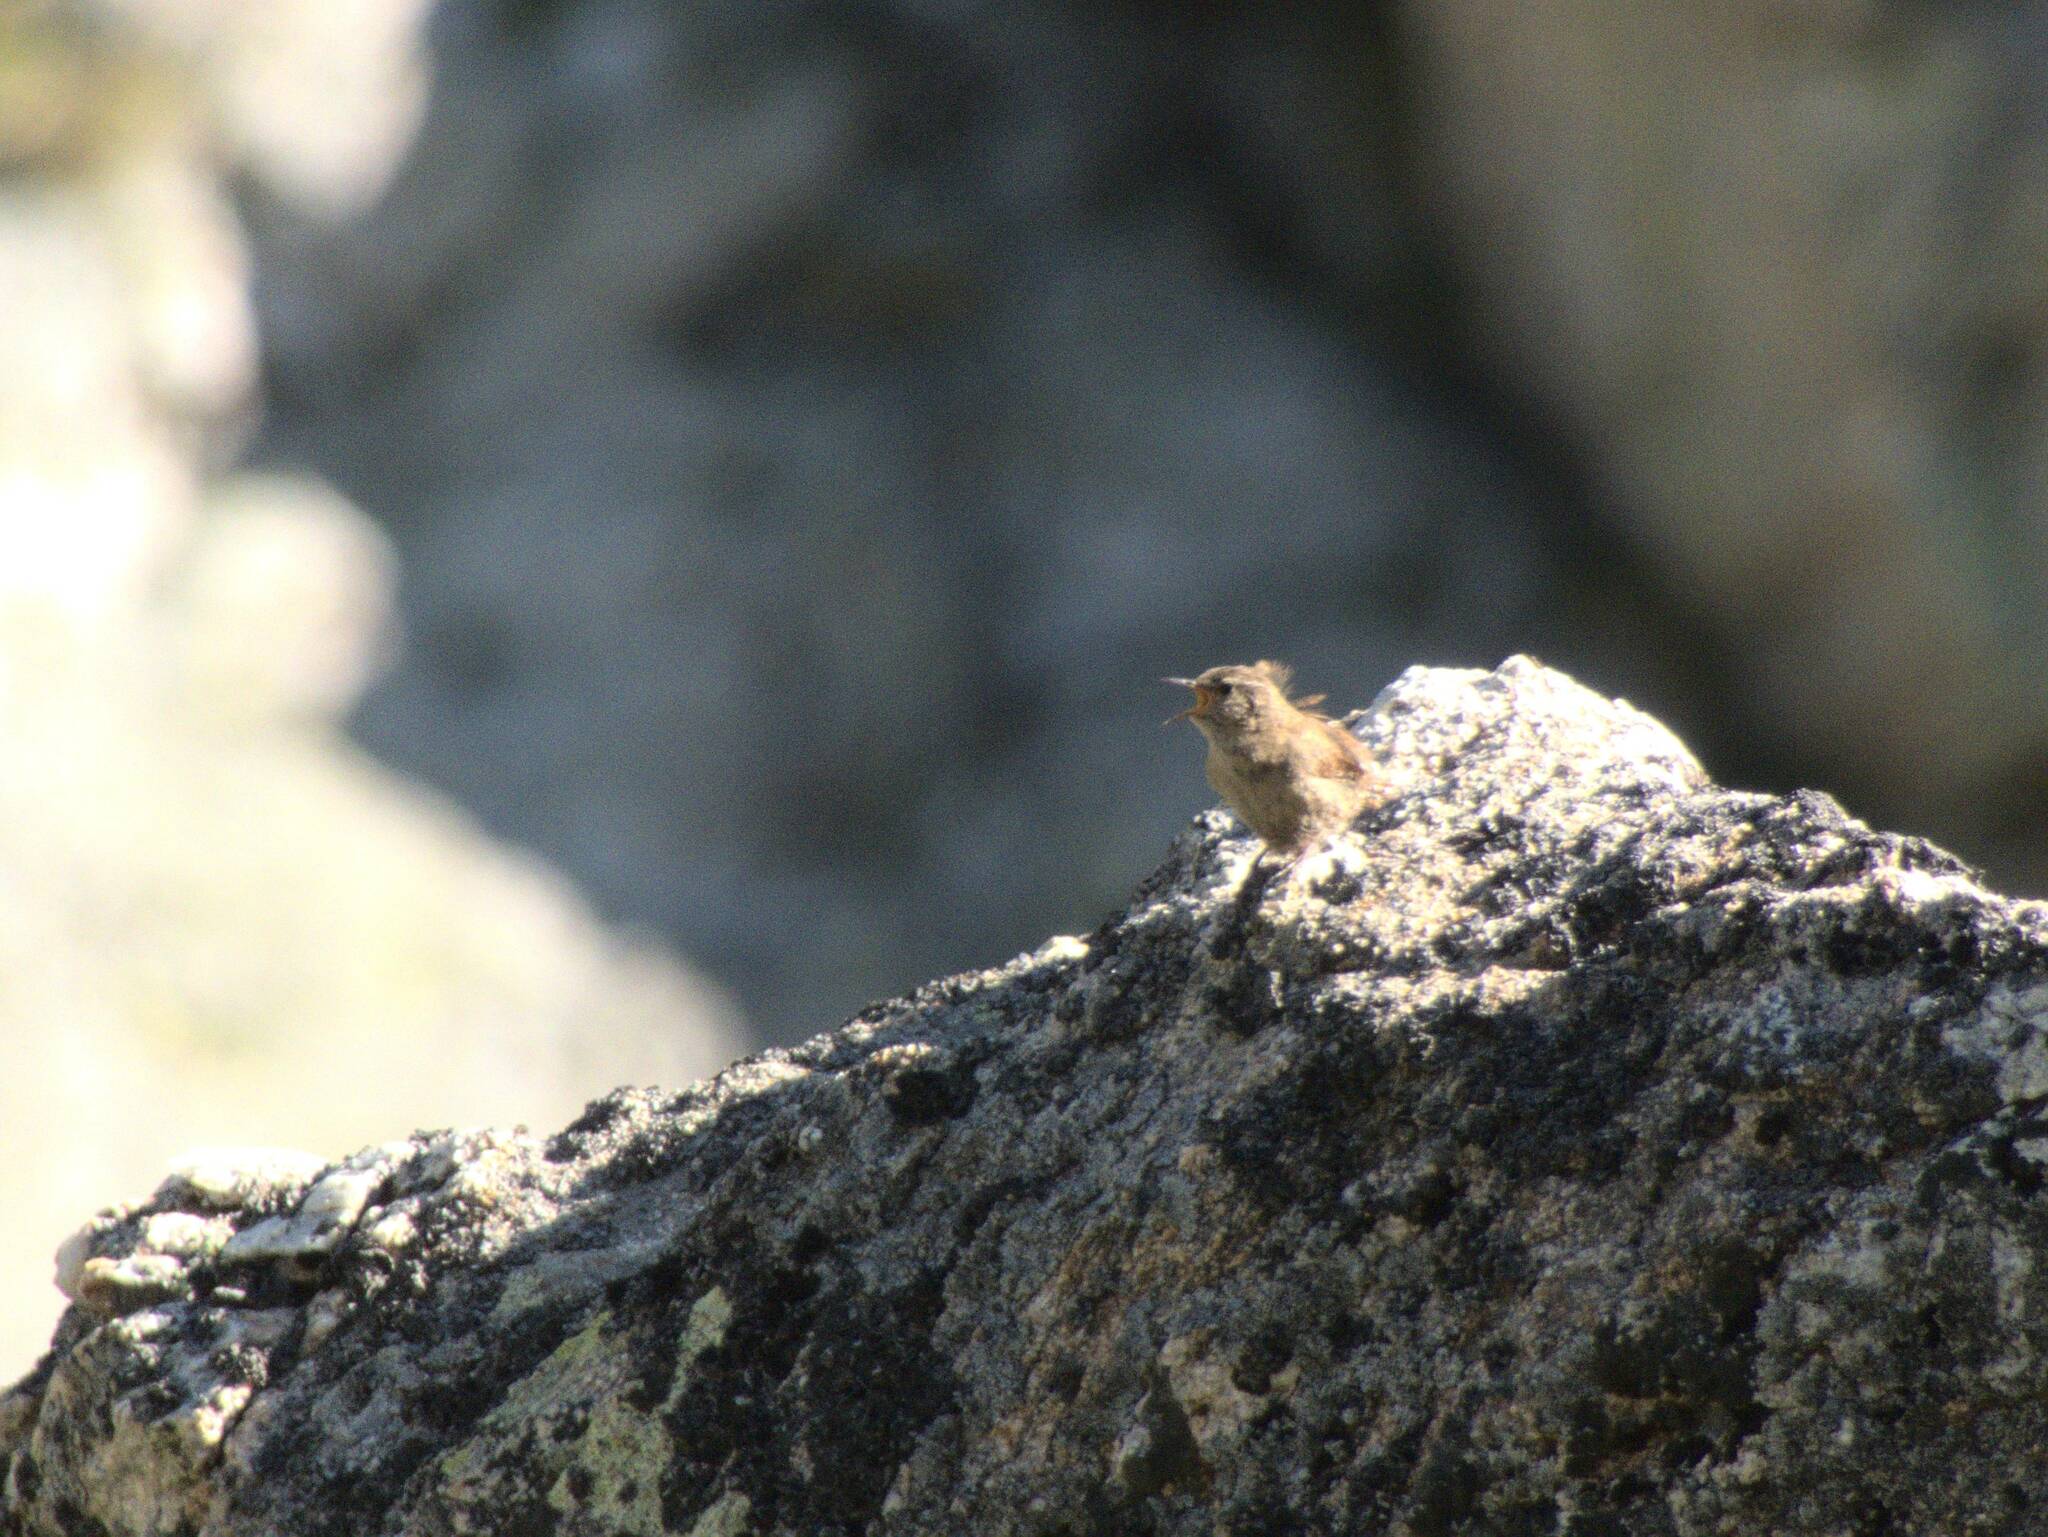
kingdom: Animalia
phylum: Chordata
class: Aves
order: Passeriformes
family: Troglodytidae
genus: Troglodytes
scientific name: Troglodytes troglodytes
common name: Eurasian wren
